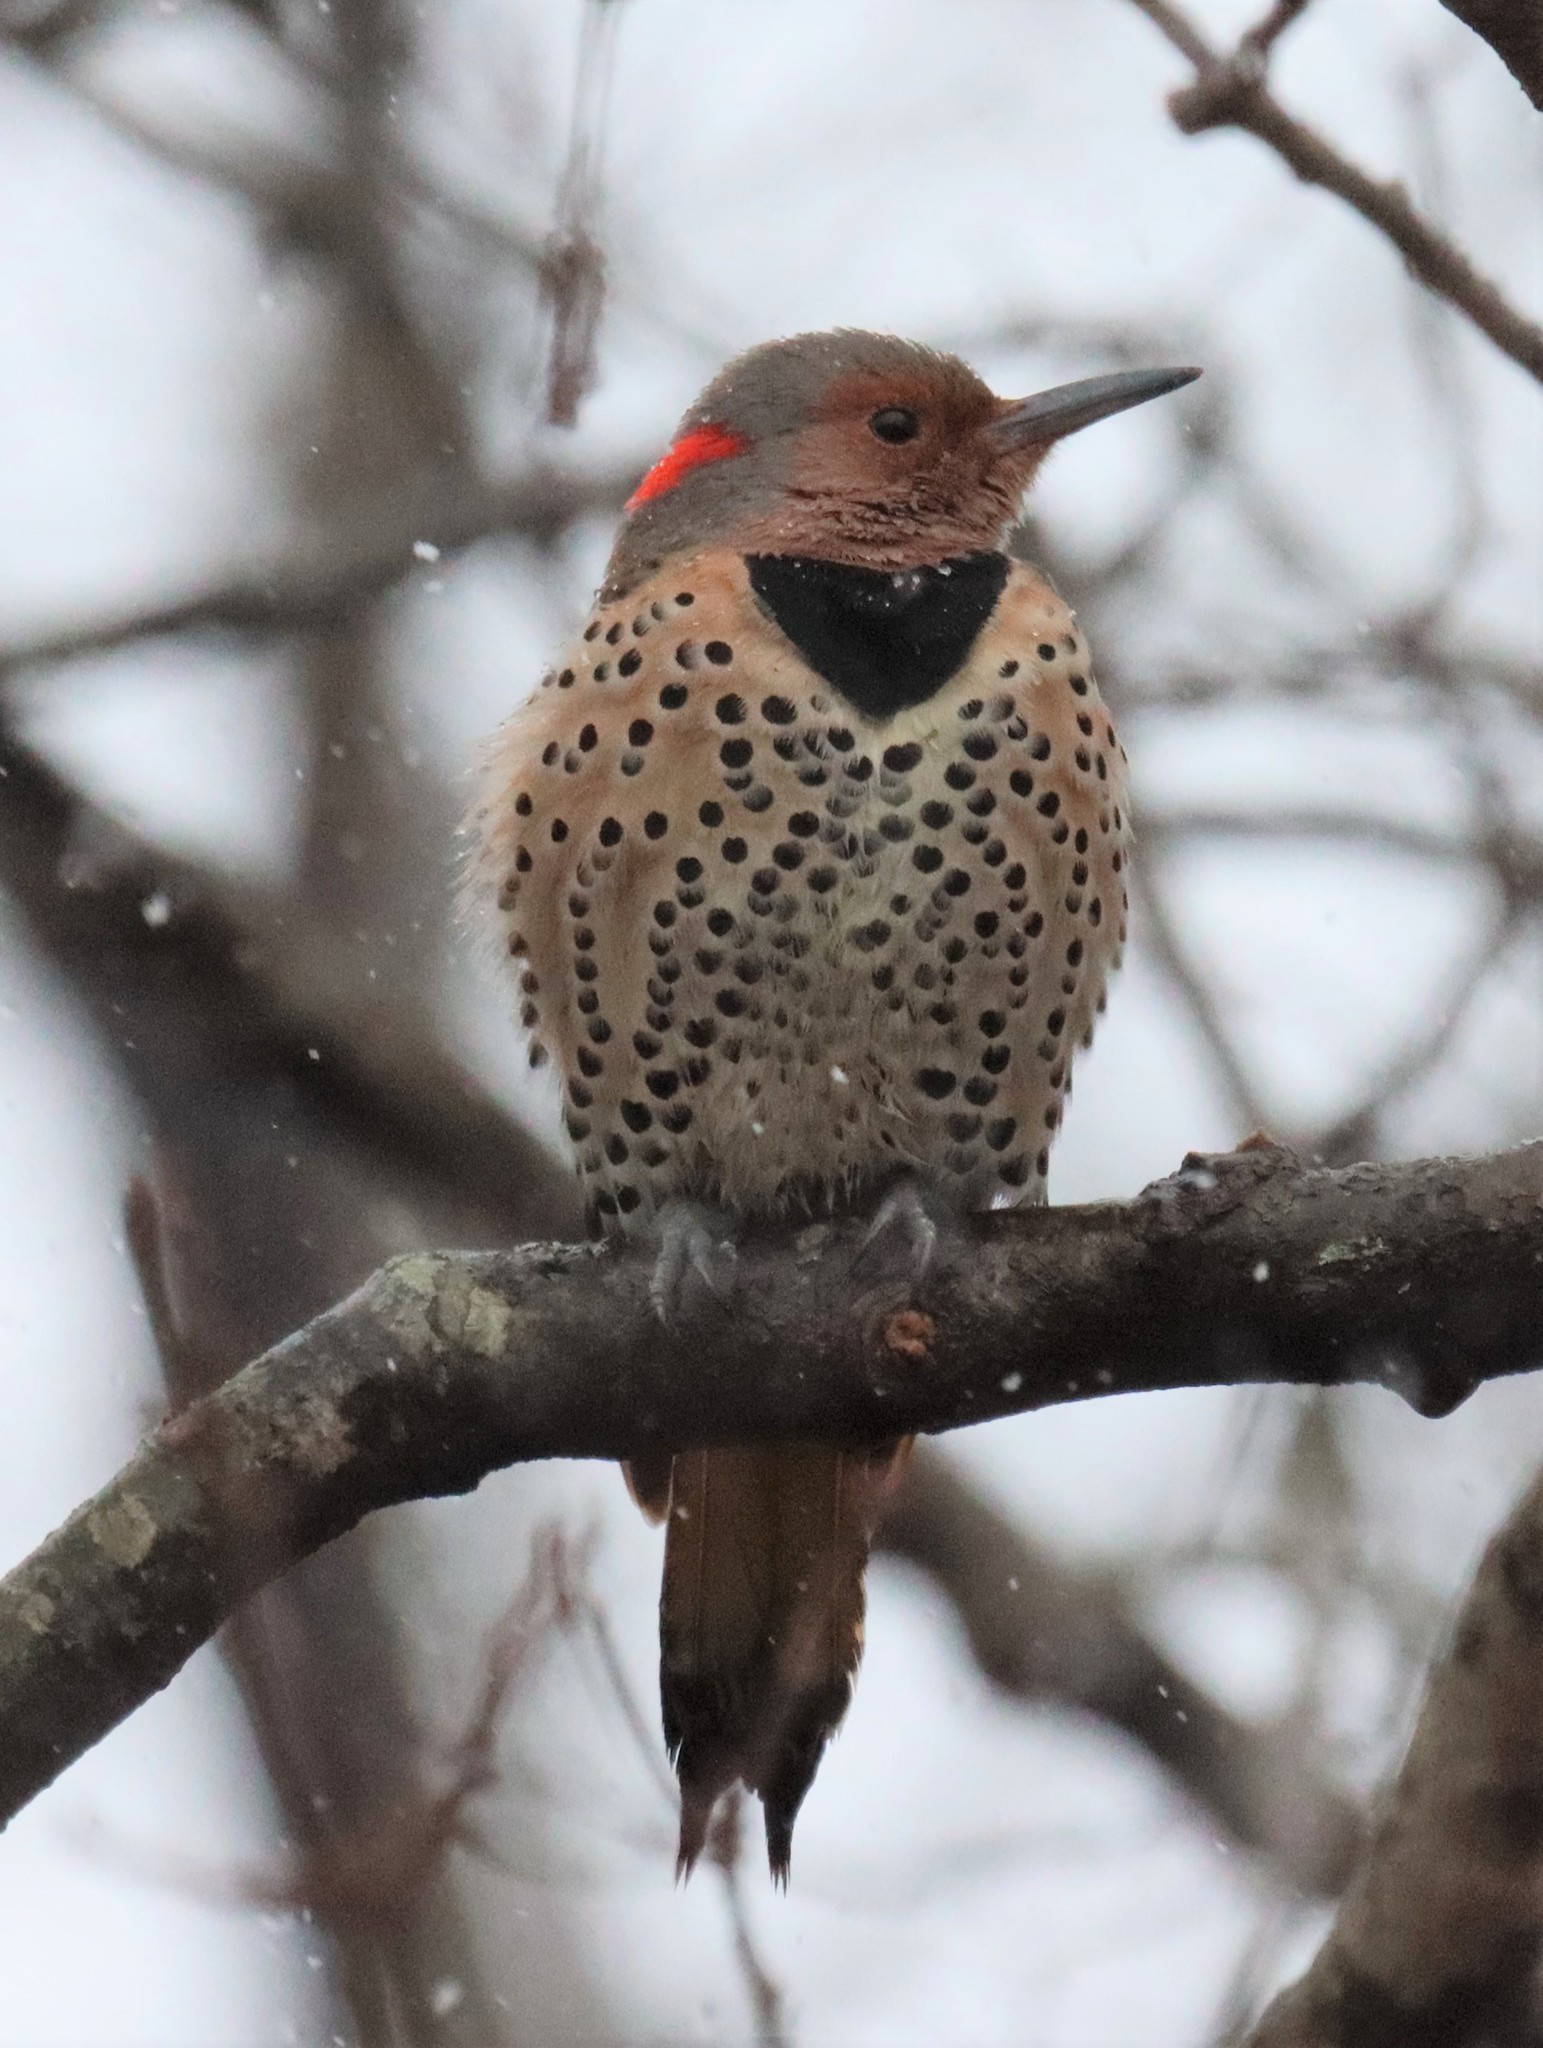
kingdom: Animalia
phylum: Chordata
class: Aves
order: Piciformes
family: Picidae
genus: Colaptes
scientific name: Colaptes auratus
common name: Northern flicker
